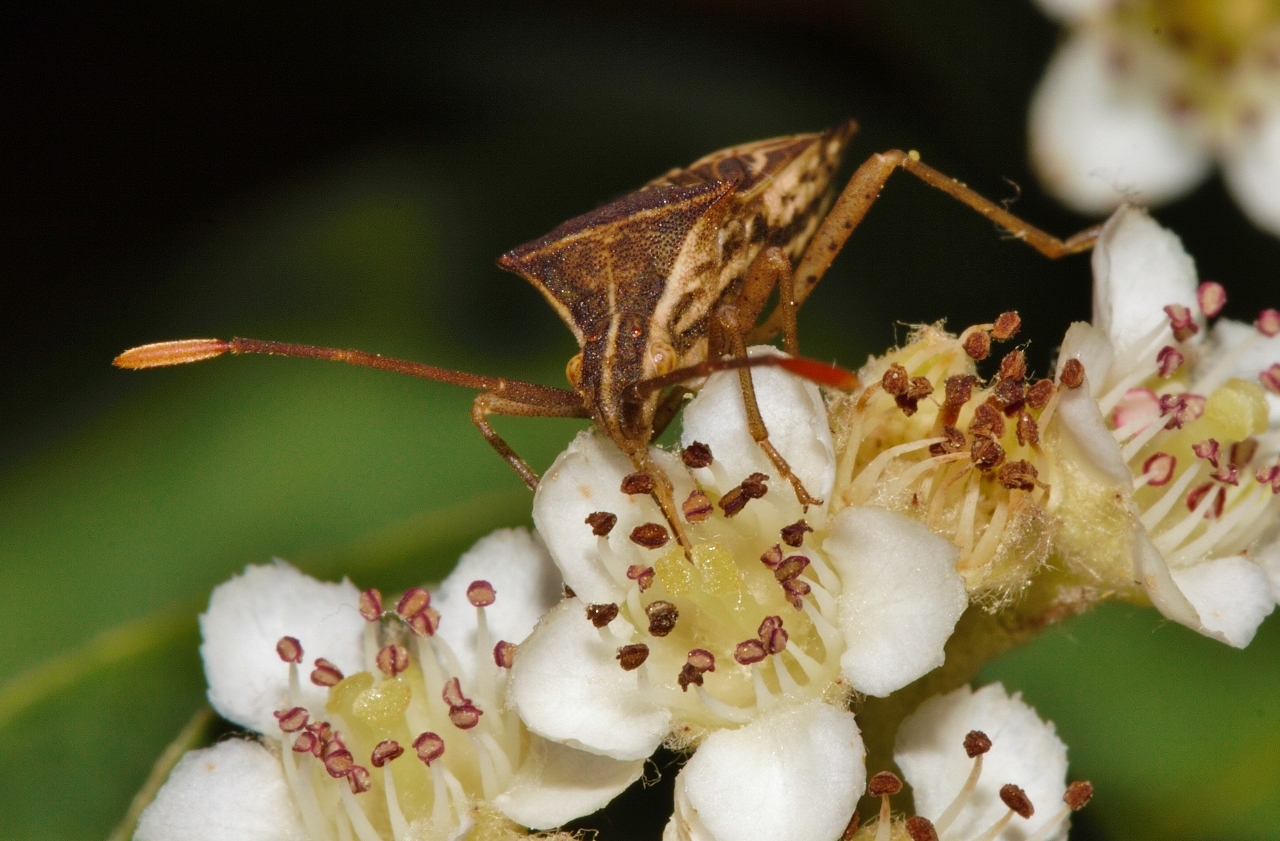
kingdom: Animalia
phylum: Arthropoda
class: Insecta
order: Hemiptera
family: Coreidae
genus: Cletoliturus
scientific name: Cletoliturus lituripennis
